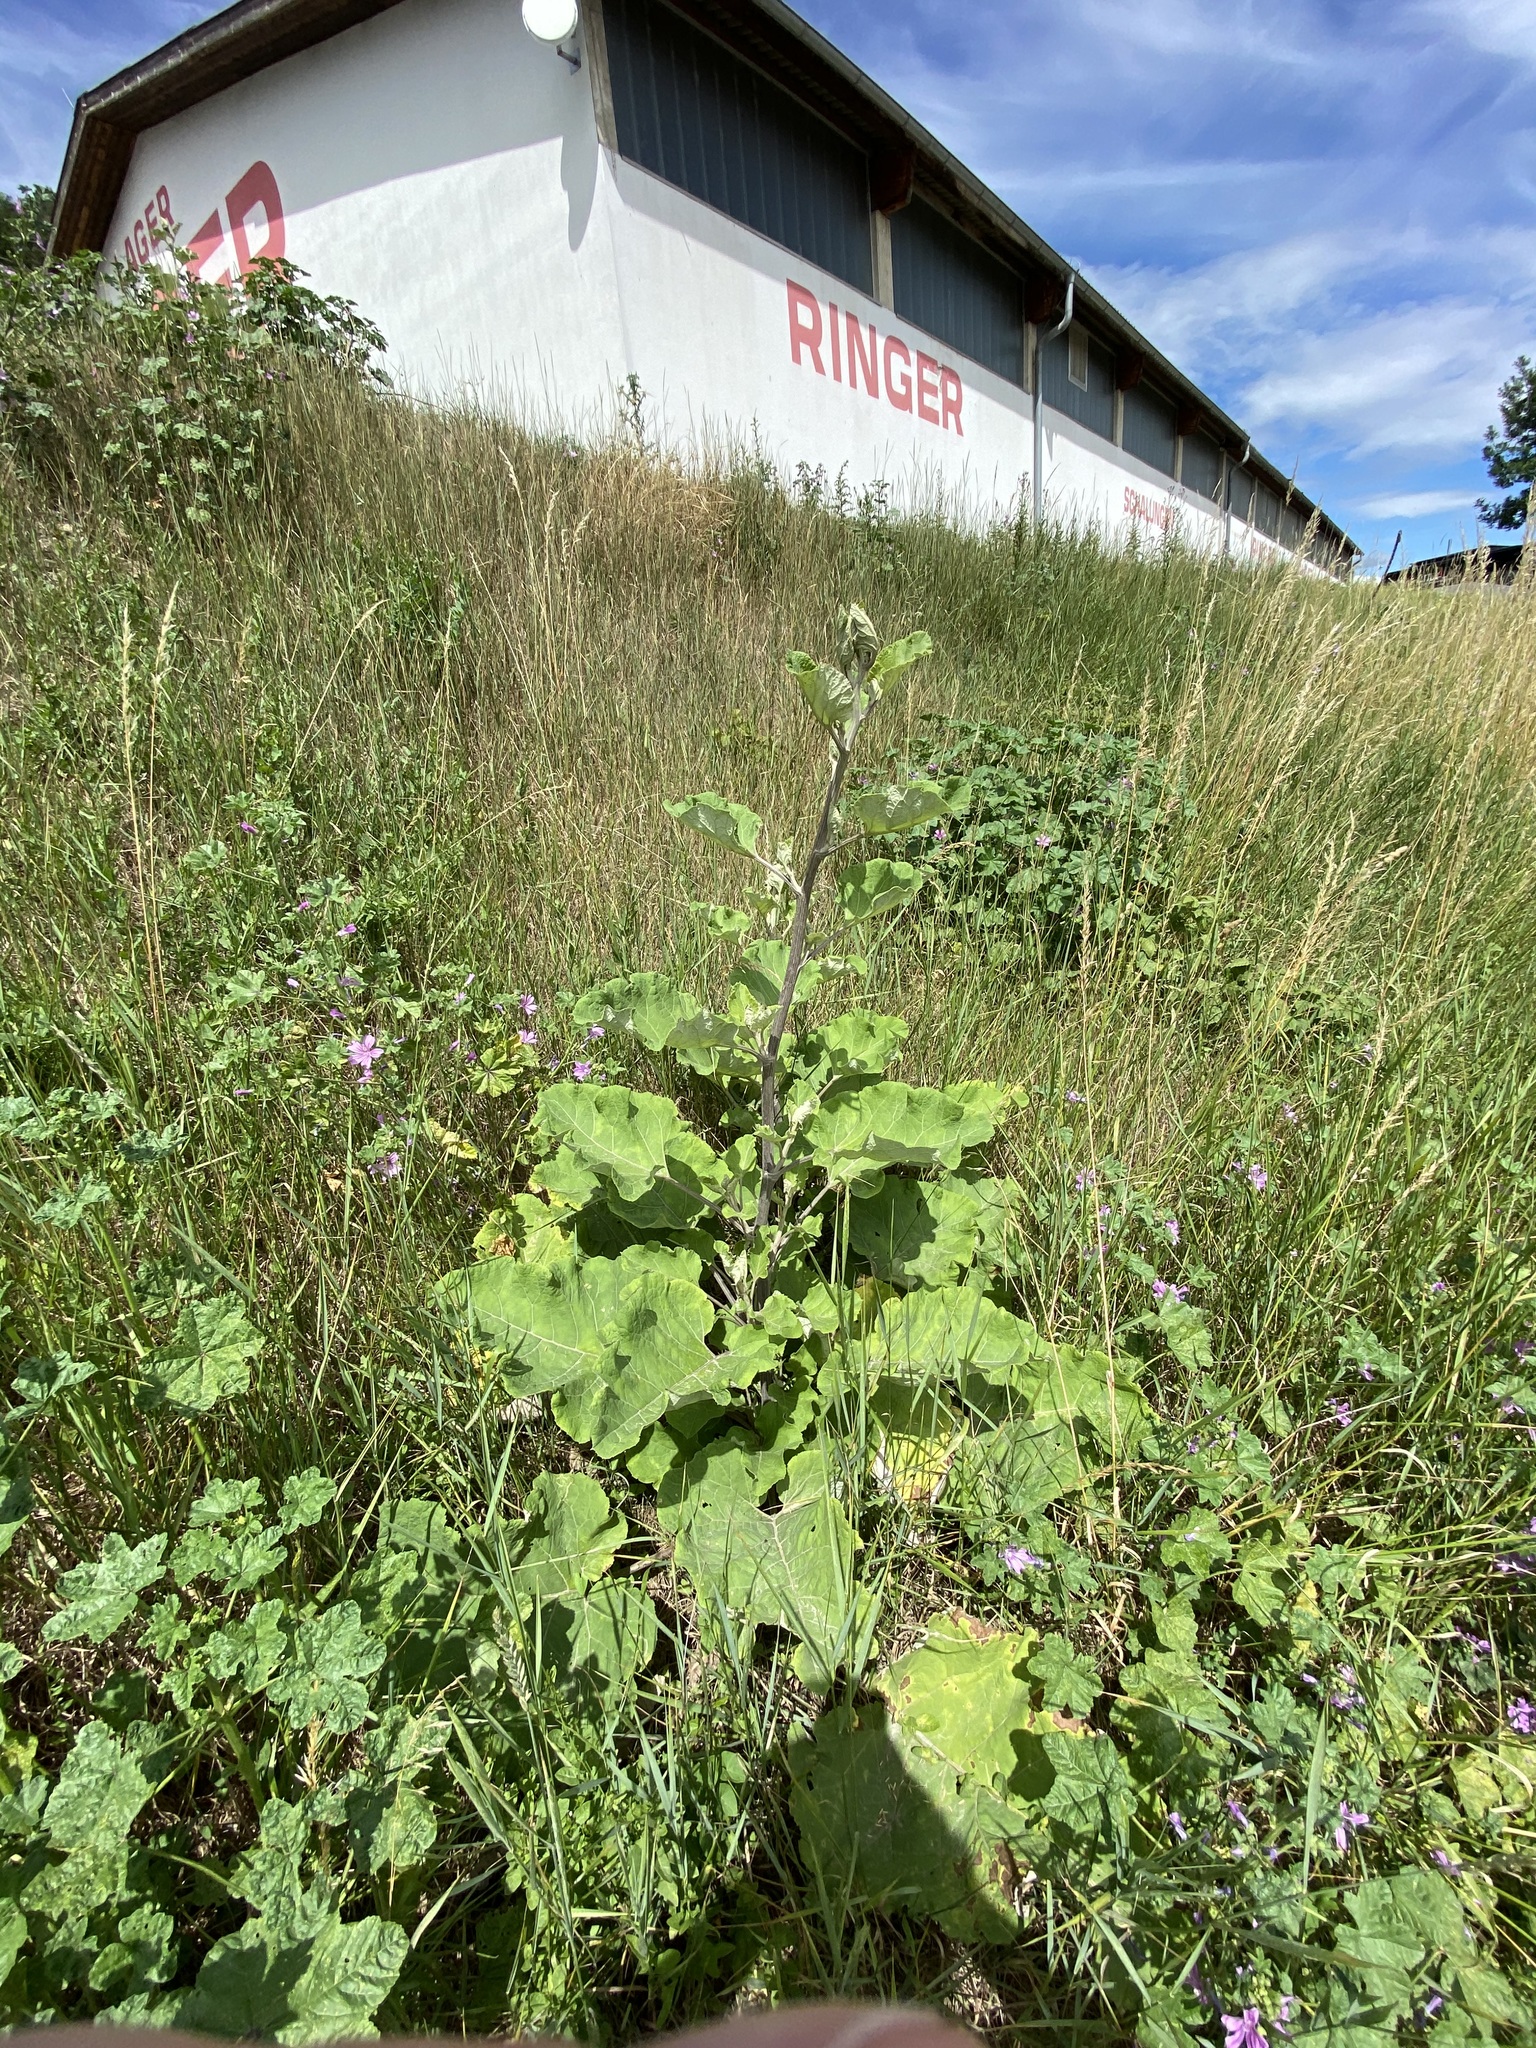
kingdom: Plantae
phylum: Tracheophyta
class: Magnoliopsida
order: Asterales
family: Asteraceae
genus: Arctium
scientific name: Arctium tomentosum
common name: Woolly burdock
